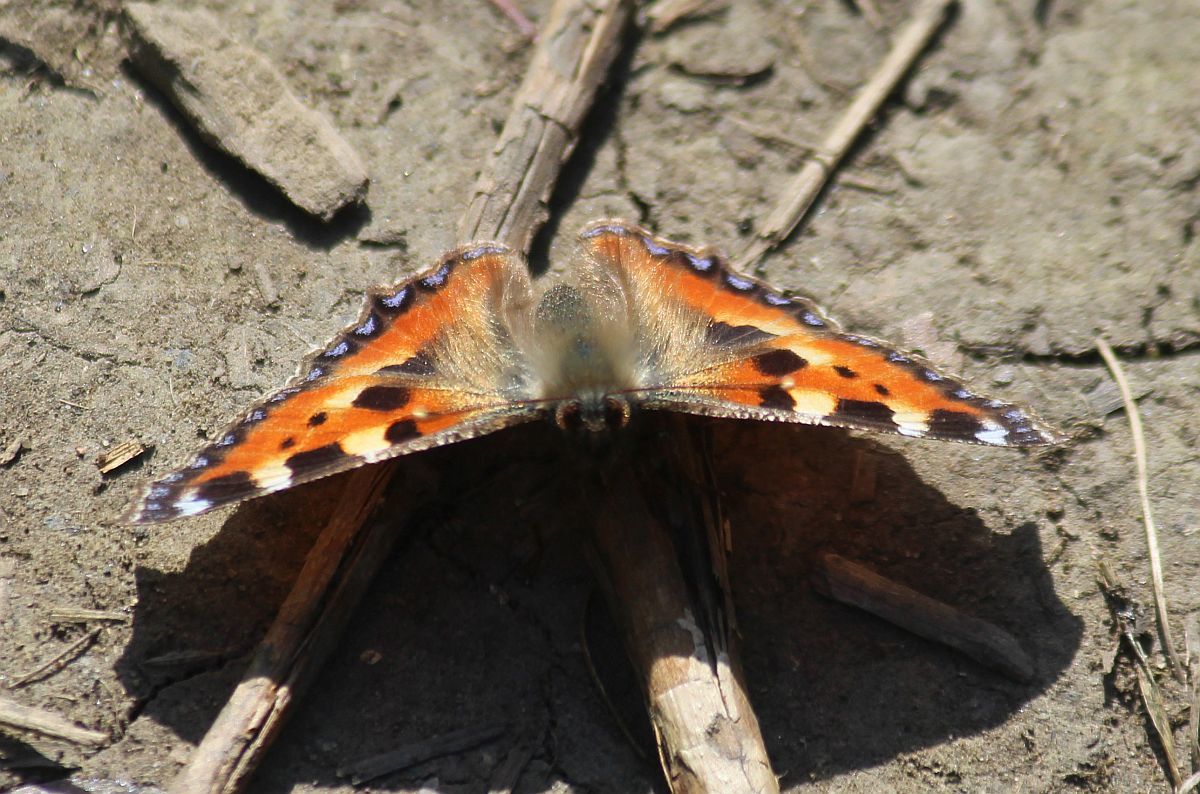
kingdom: Animalia
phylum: Arthropoda
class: Insecta
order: Lepidoptera
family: Nymphalidae
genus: Aglais
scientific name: Aglais urticae
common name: Small tortoiseshell
